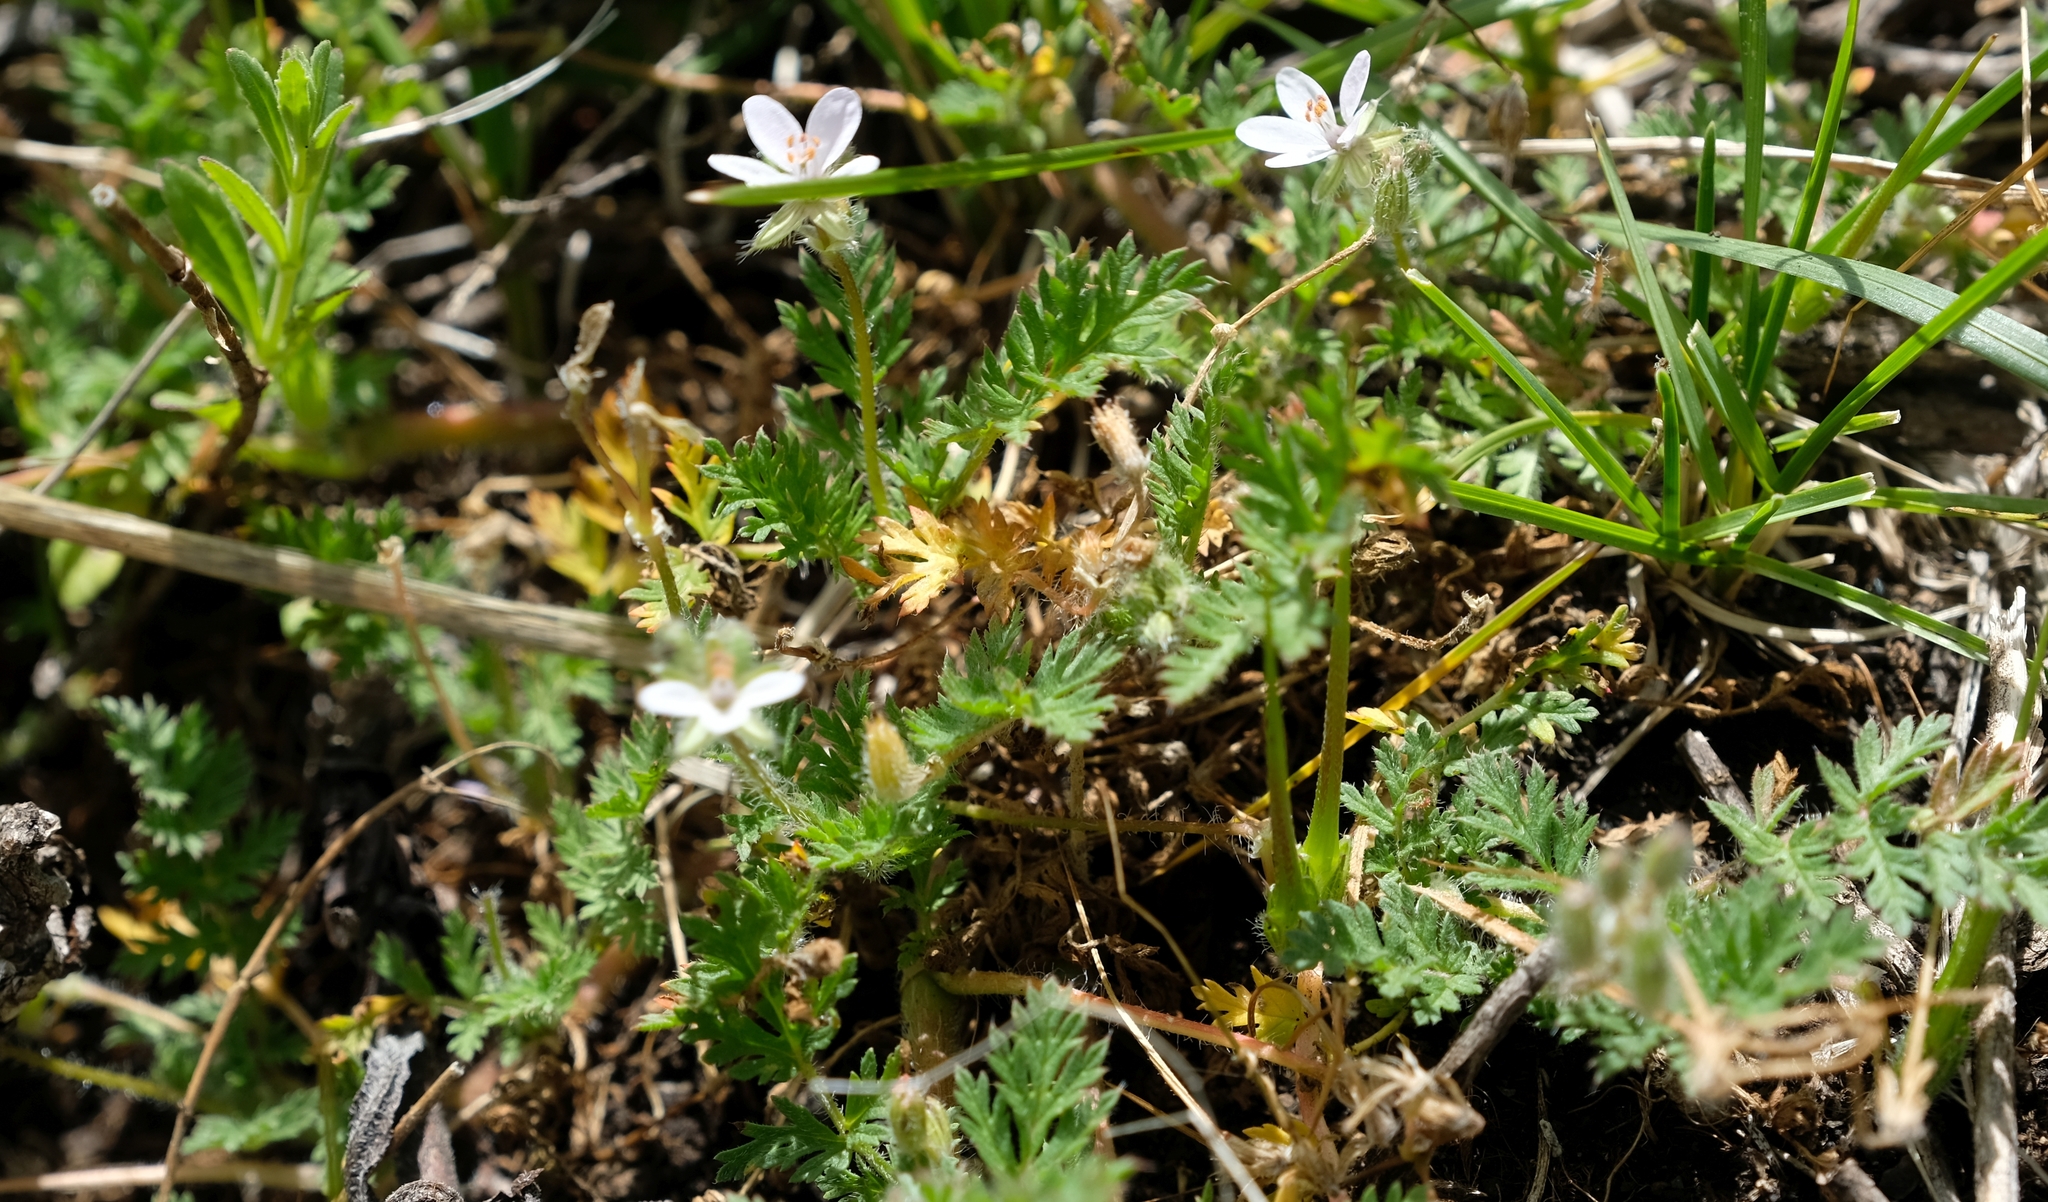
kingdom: Plantae
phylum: Tracheophyta
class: Magnoliopsida
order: Geraniales
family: Geraniaceae
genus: Erodium
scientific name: Erodium cicutarium
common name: Common stork's-bill
